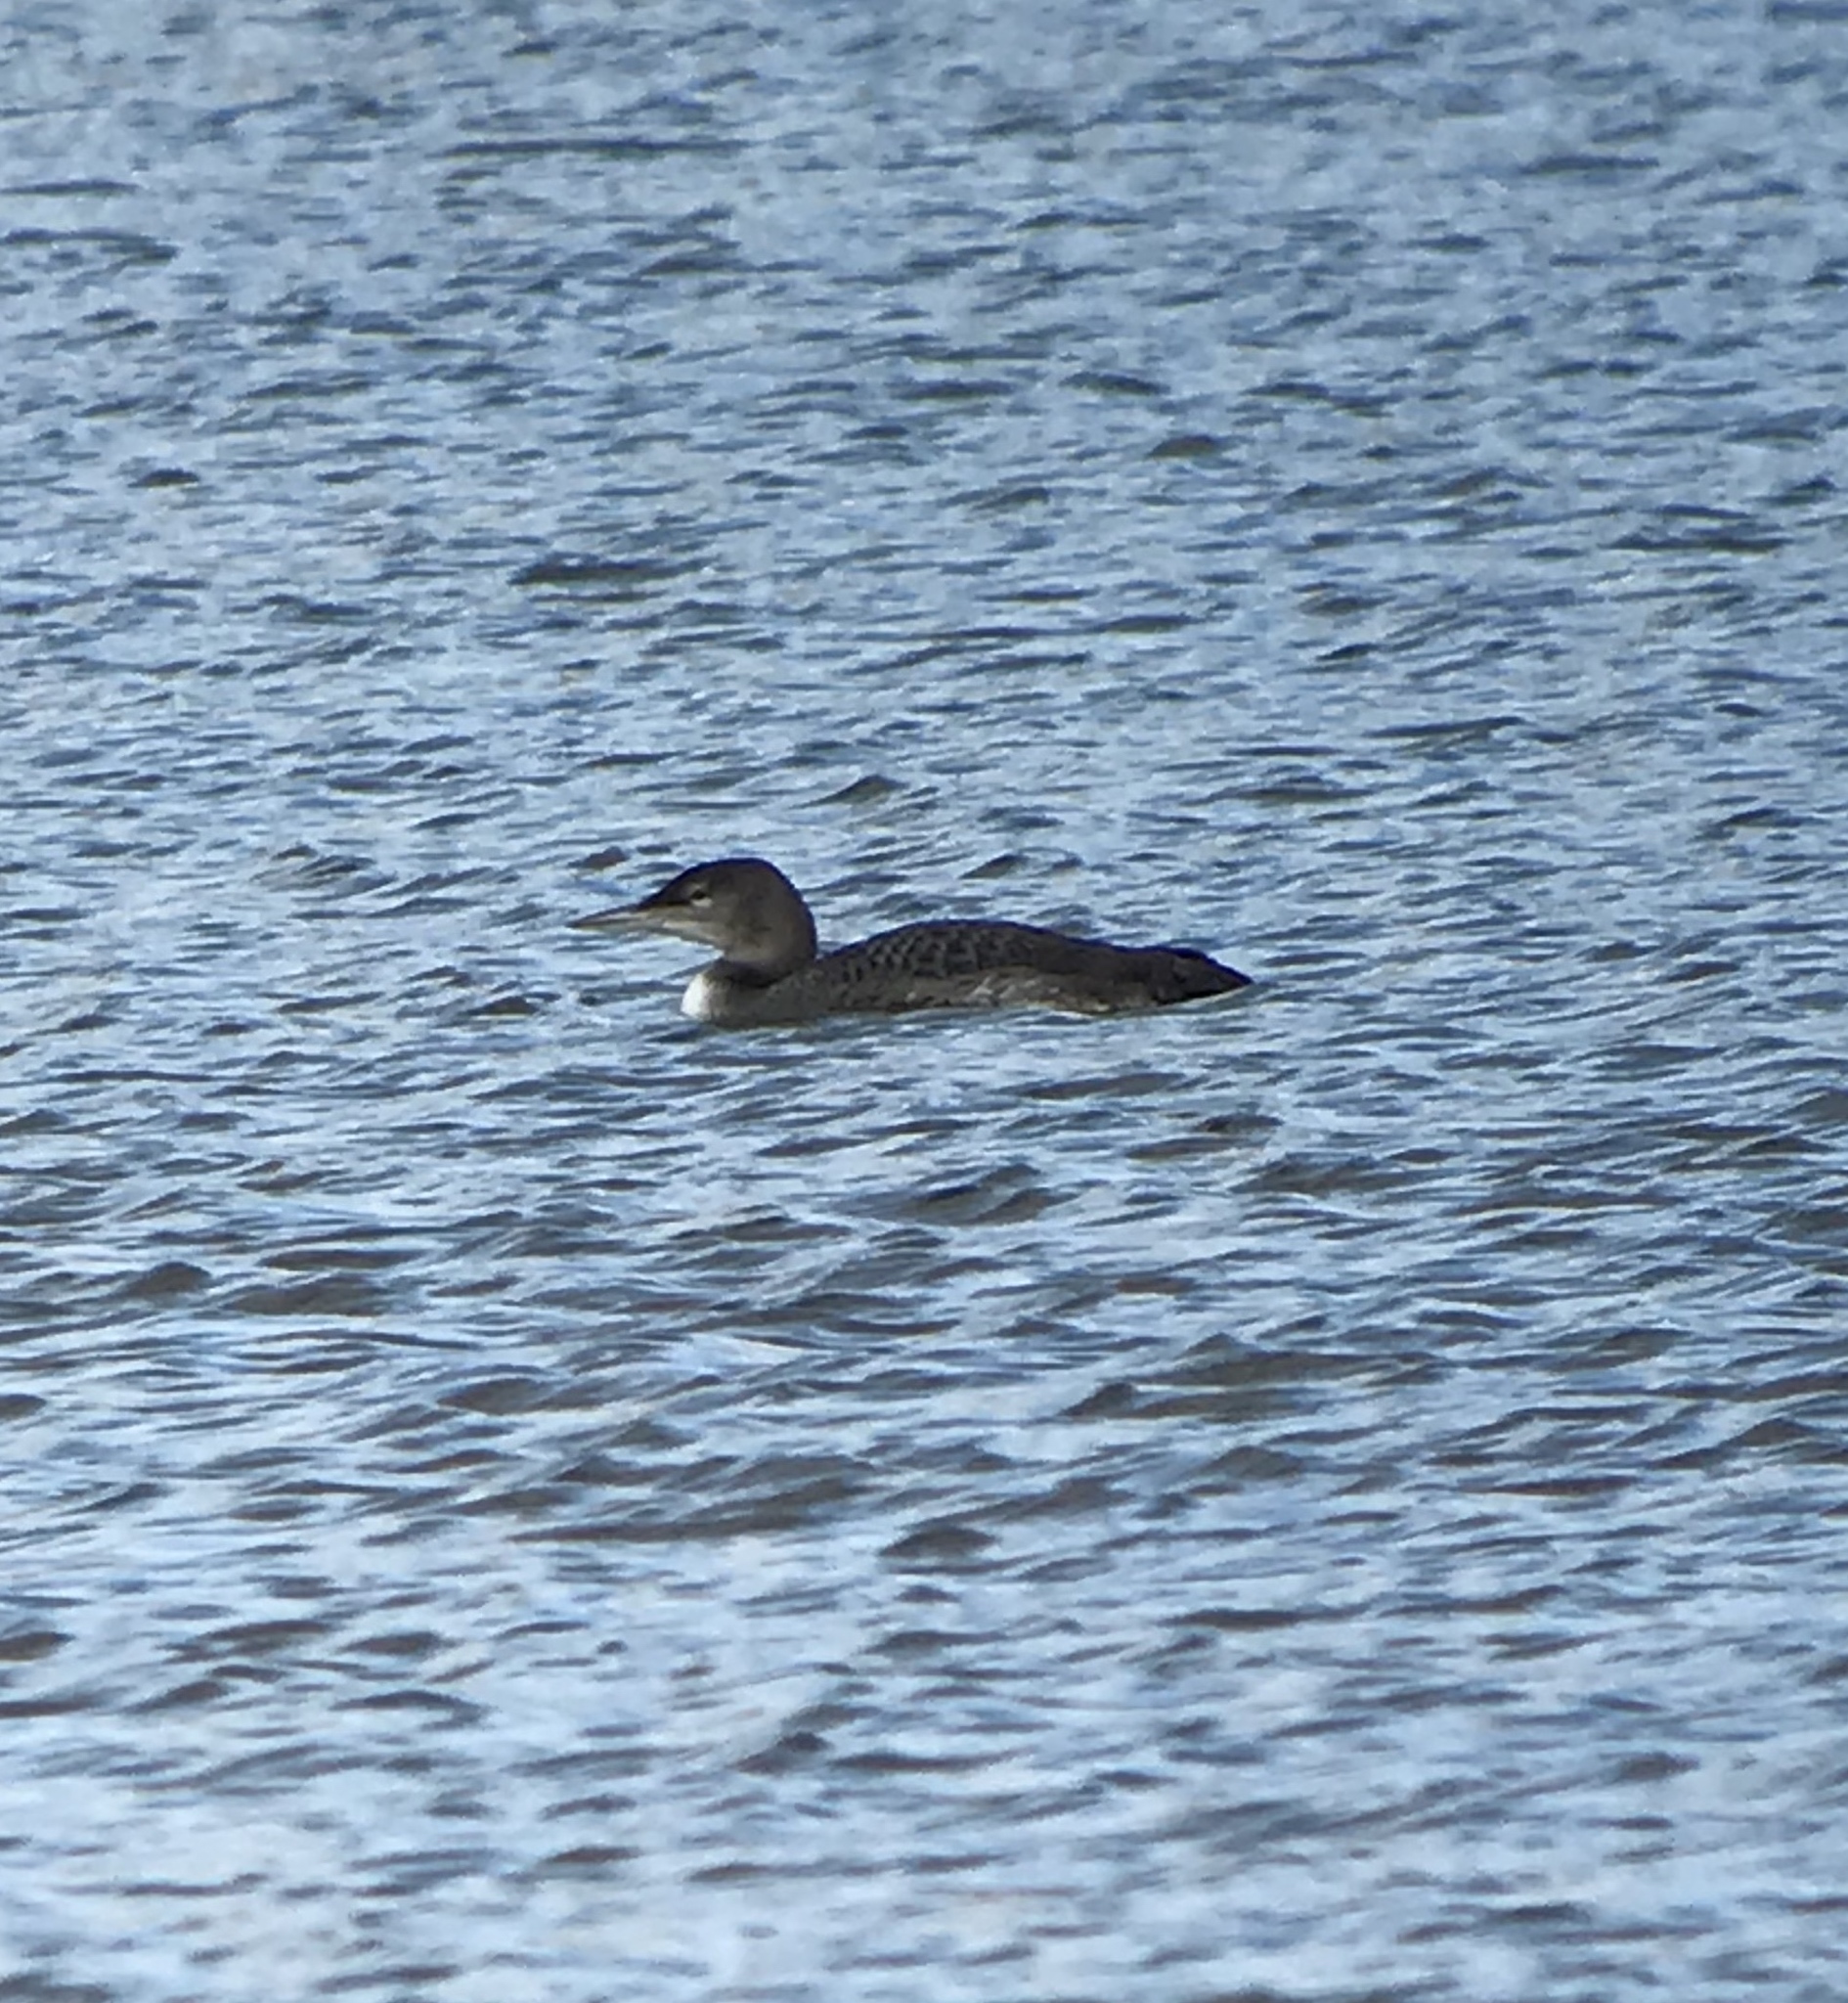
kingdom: Animalia
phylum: Chordata
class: Aves
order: Gaviiformes
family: Gaviidae
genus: Gavia
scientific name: Gavia immer
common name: Common loon
